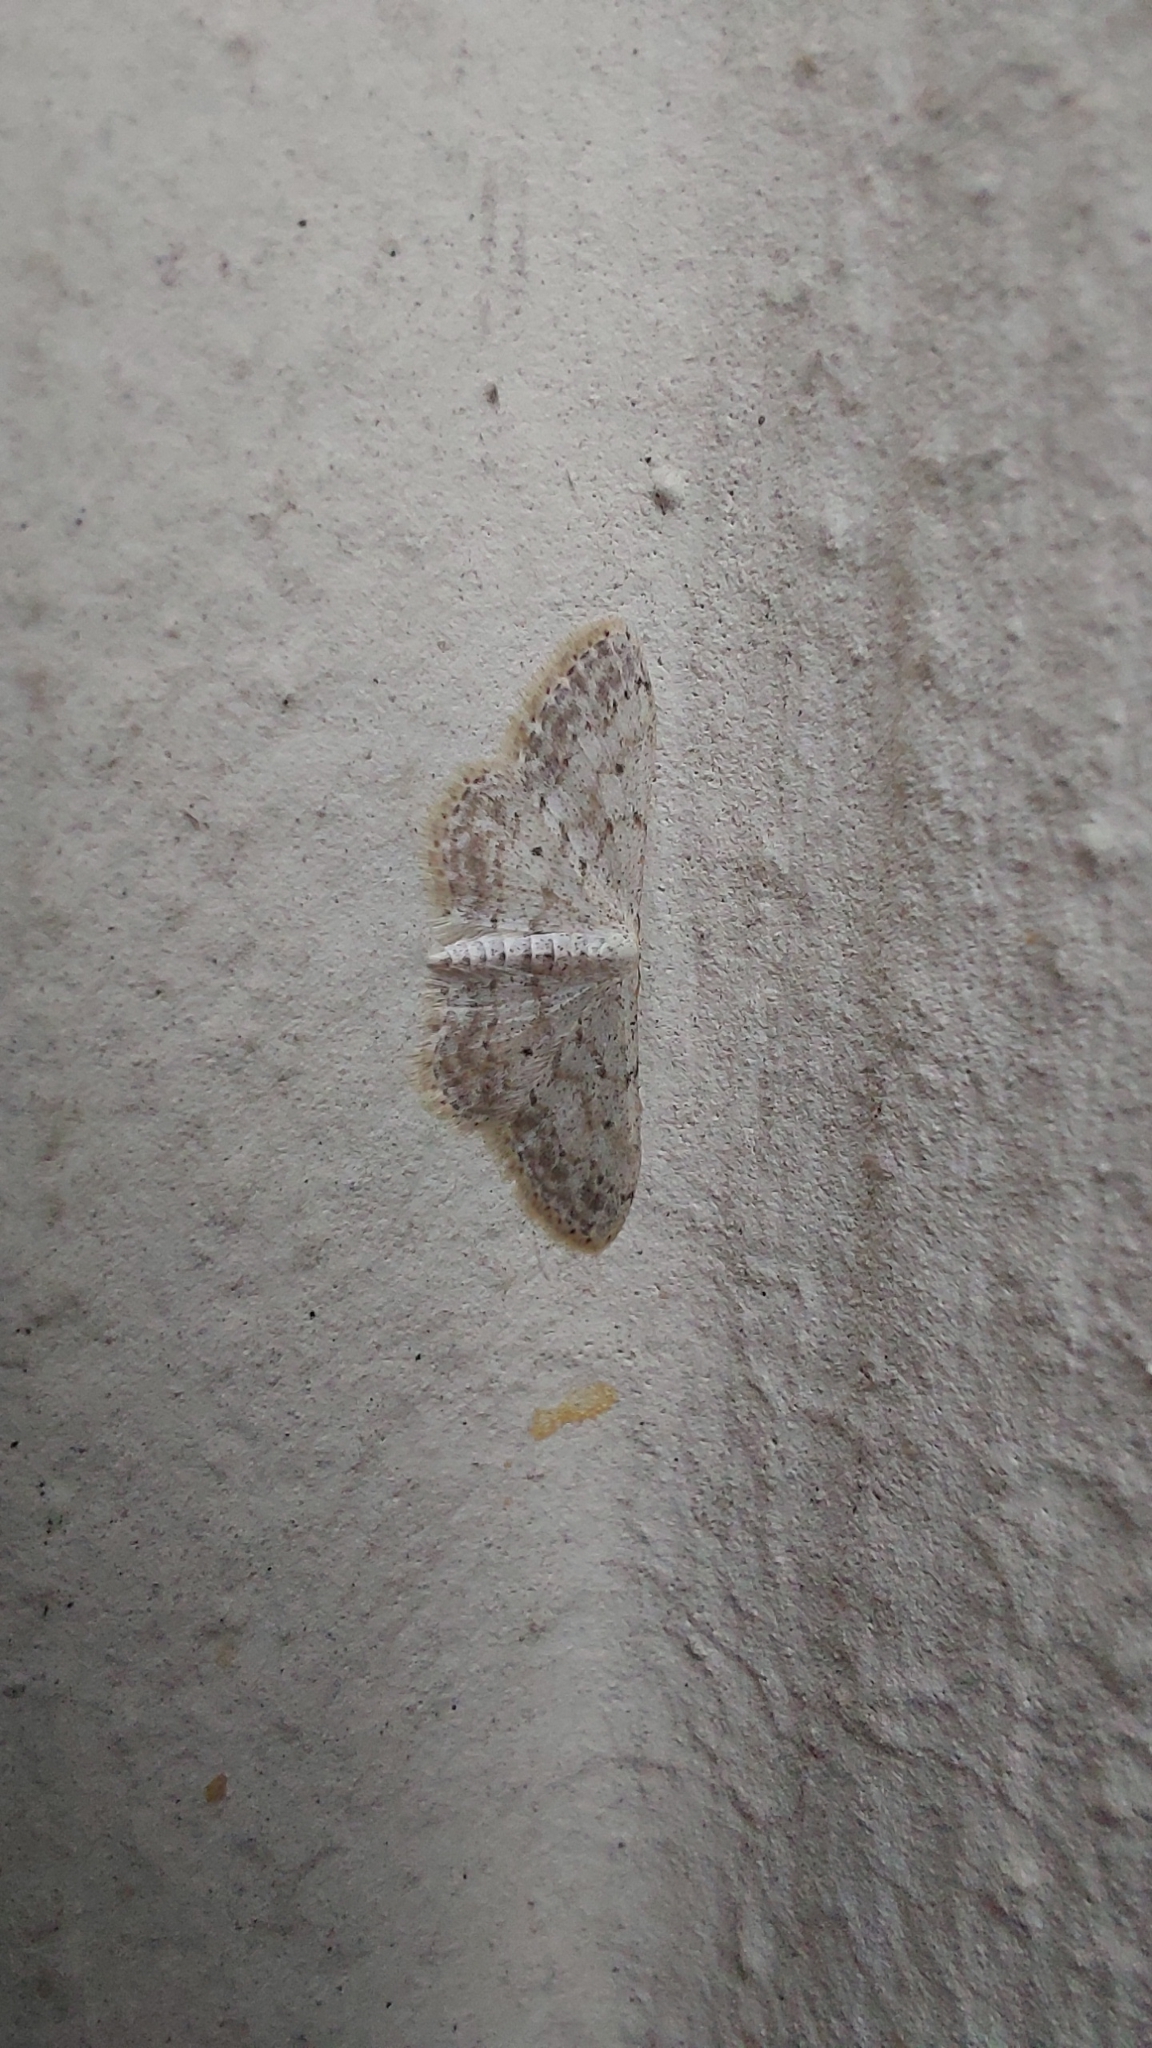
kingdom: Animalia
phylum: Arthropoda
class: Insecta
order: Lepidoptera
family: Geometridae
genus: Idaea
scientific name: Idaea seriata
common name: Small dusty wave
